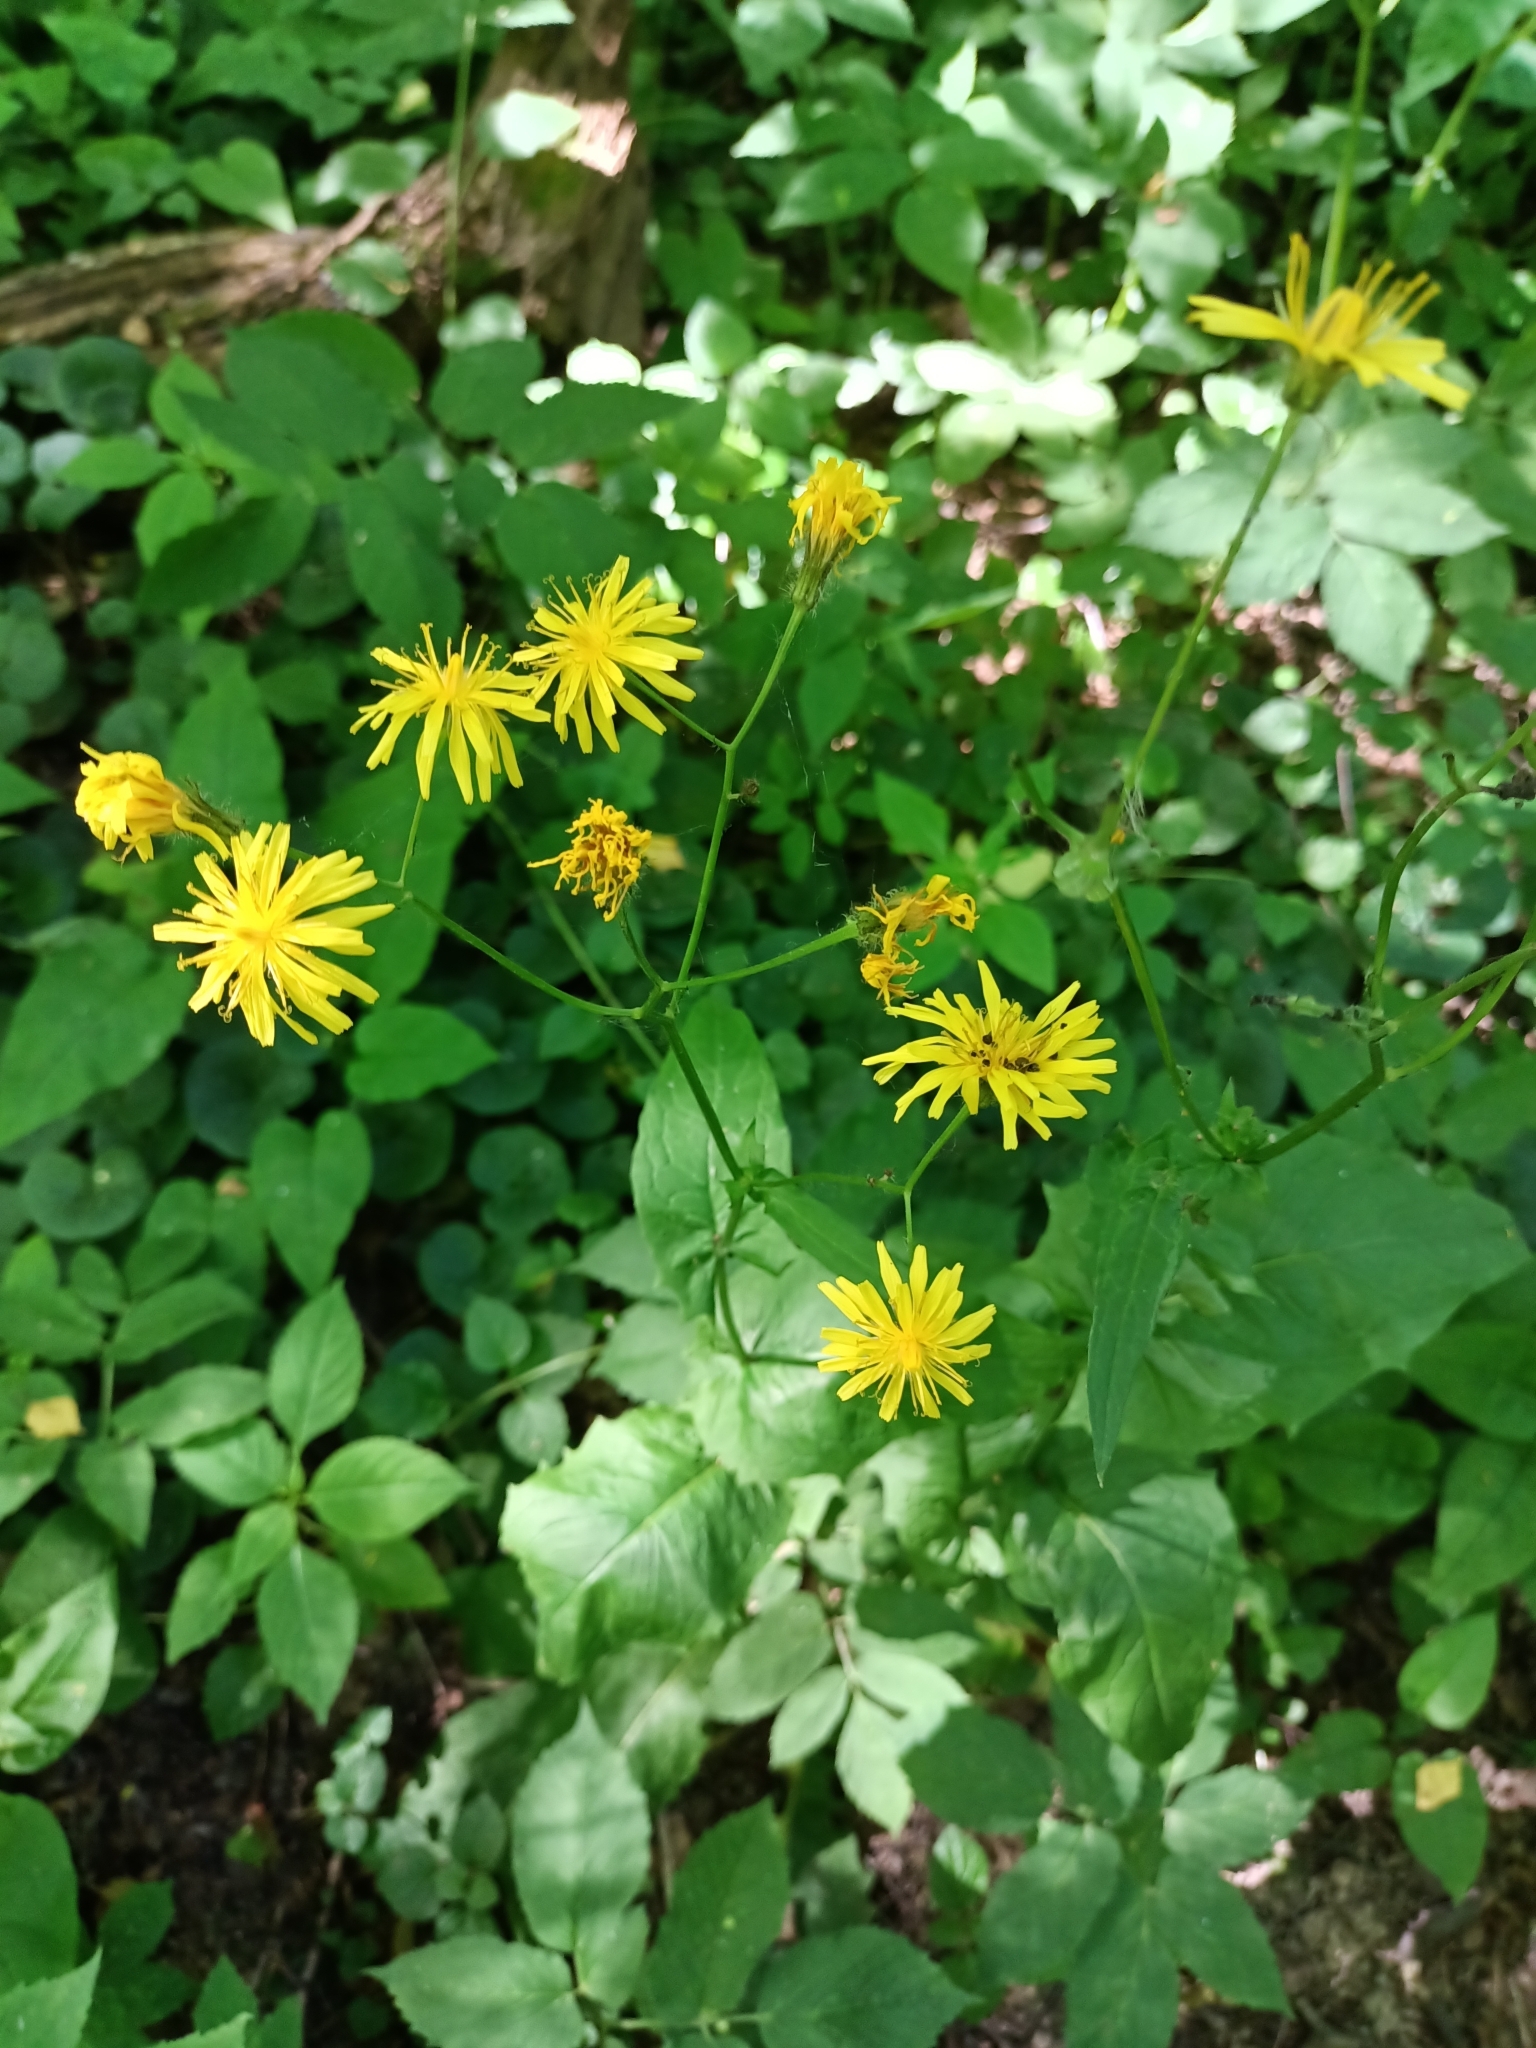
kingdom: Plantae
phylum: Tracheophyta
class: Magnoliopsida
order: Asterales
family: Asteraceae
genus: Crepis
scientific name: Crepis paludosa
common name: Marsh hawk's-beard
